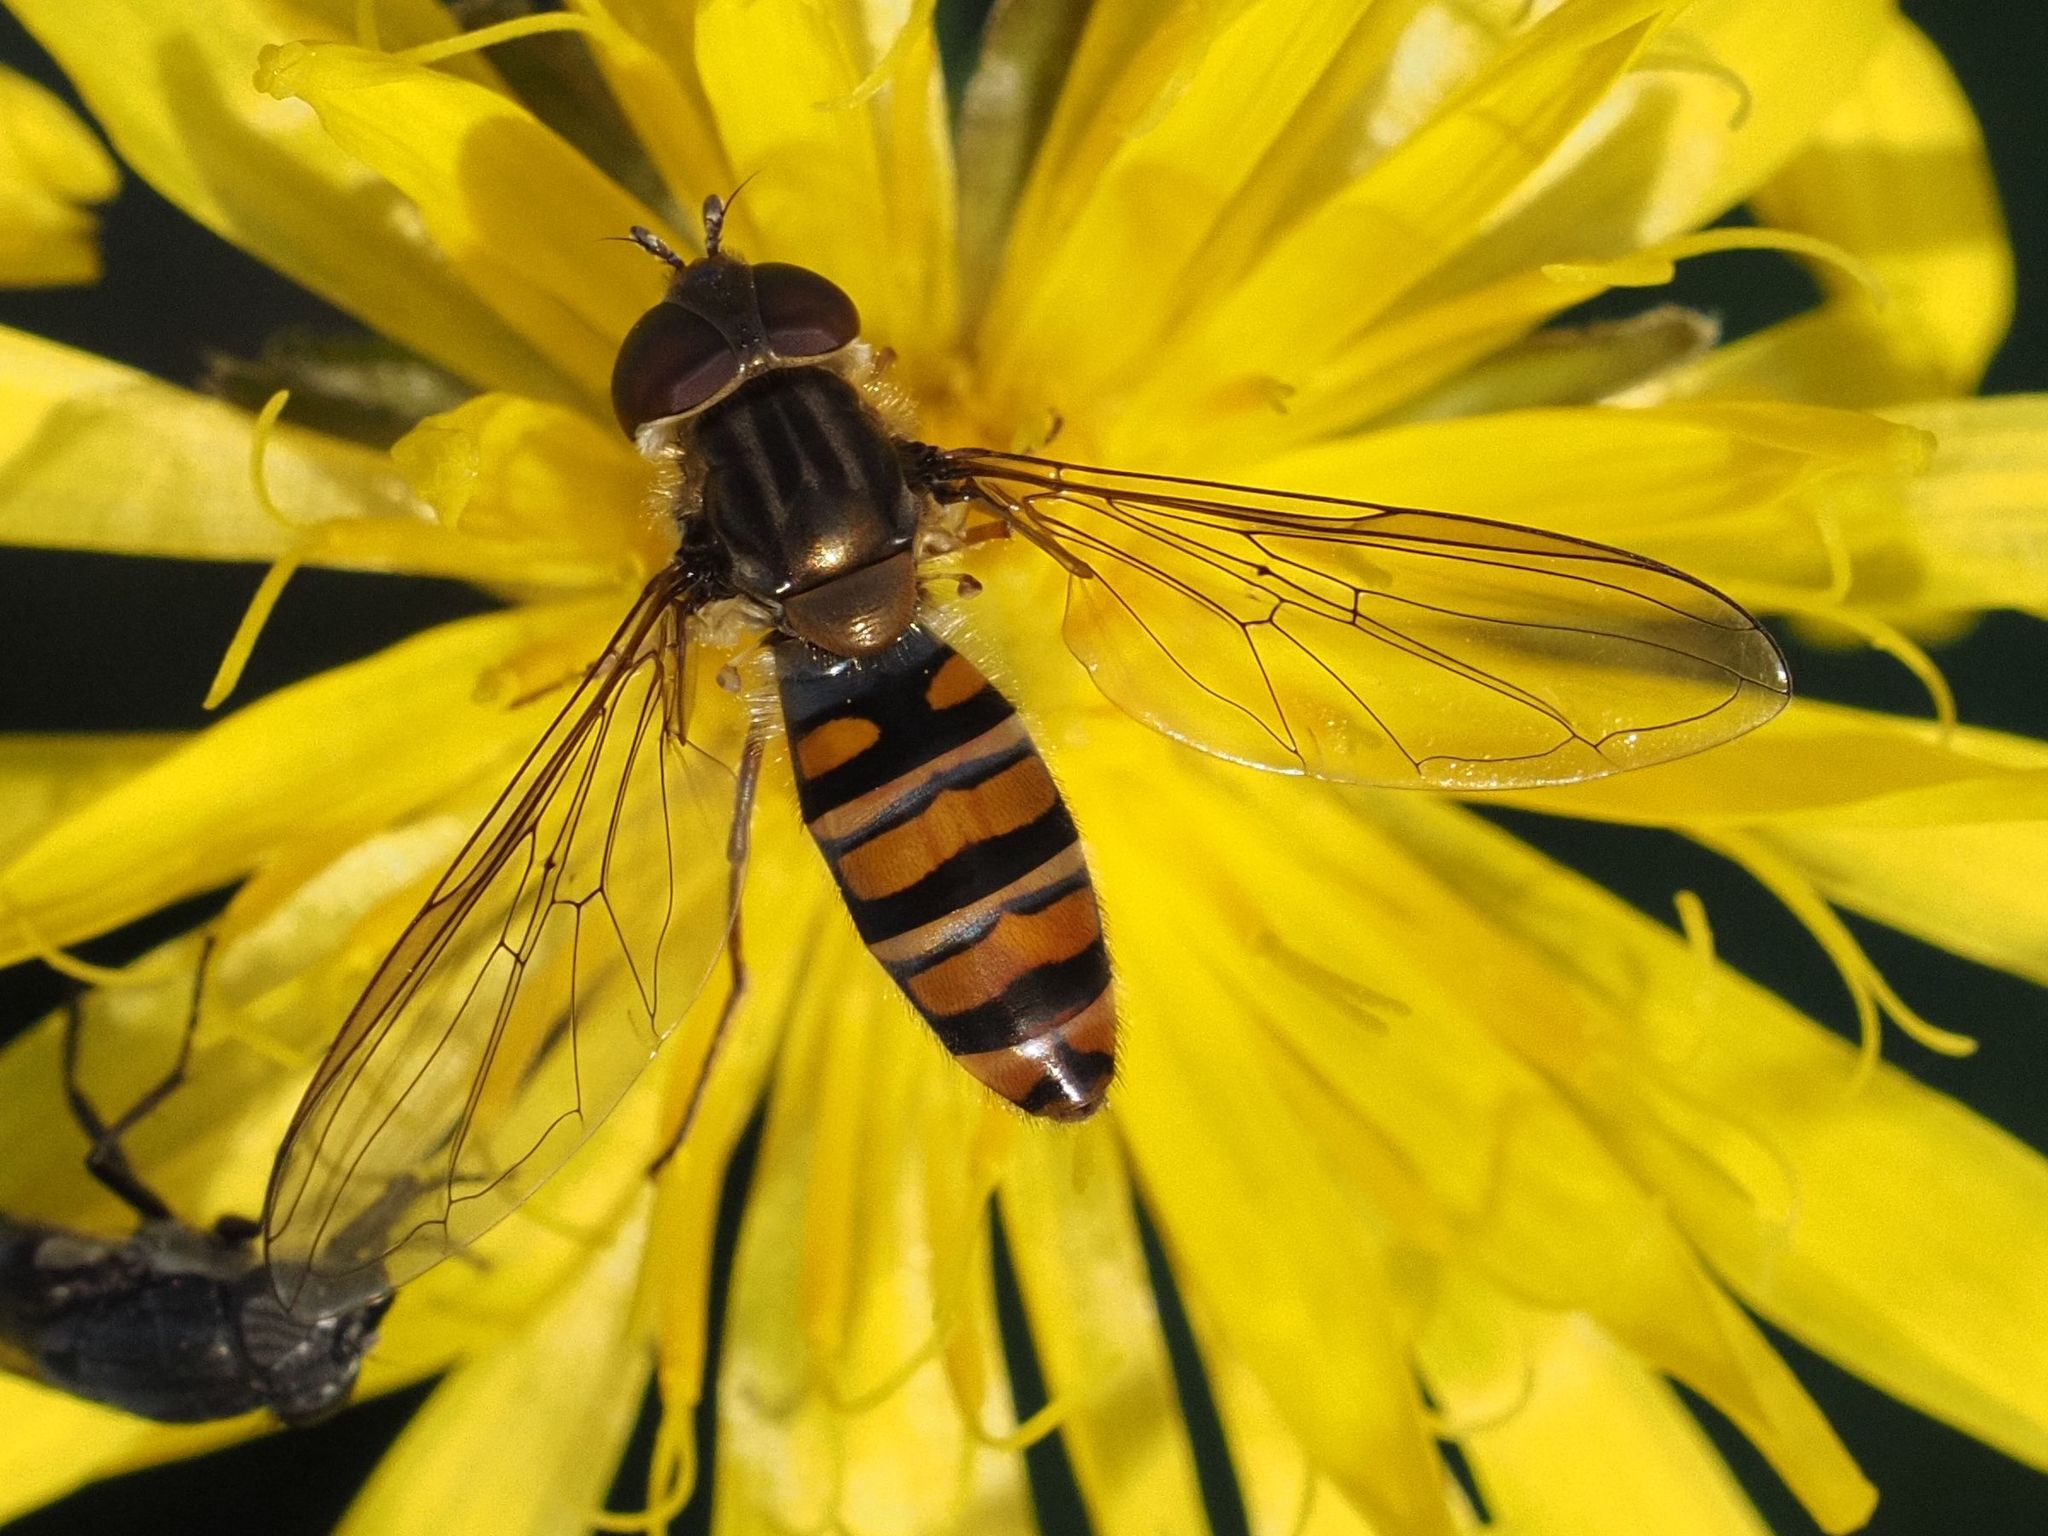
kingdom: Animalia
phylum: Arthropoda
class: Insecta
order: Diptera
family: Syrphidae
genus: Episyrphus
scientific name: Episyrphus balteatus
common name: Marmalade hoverfly
